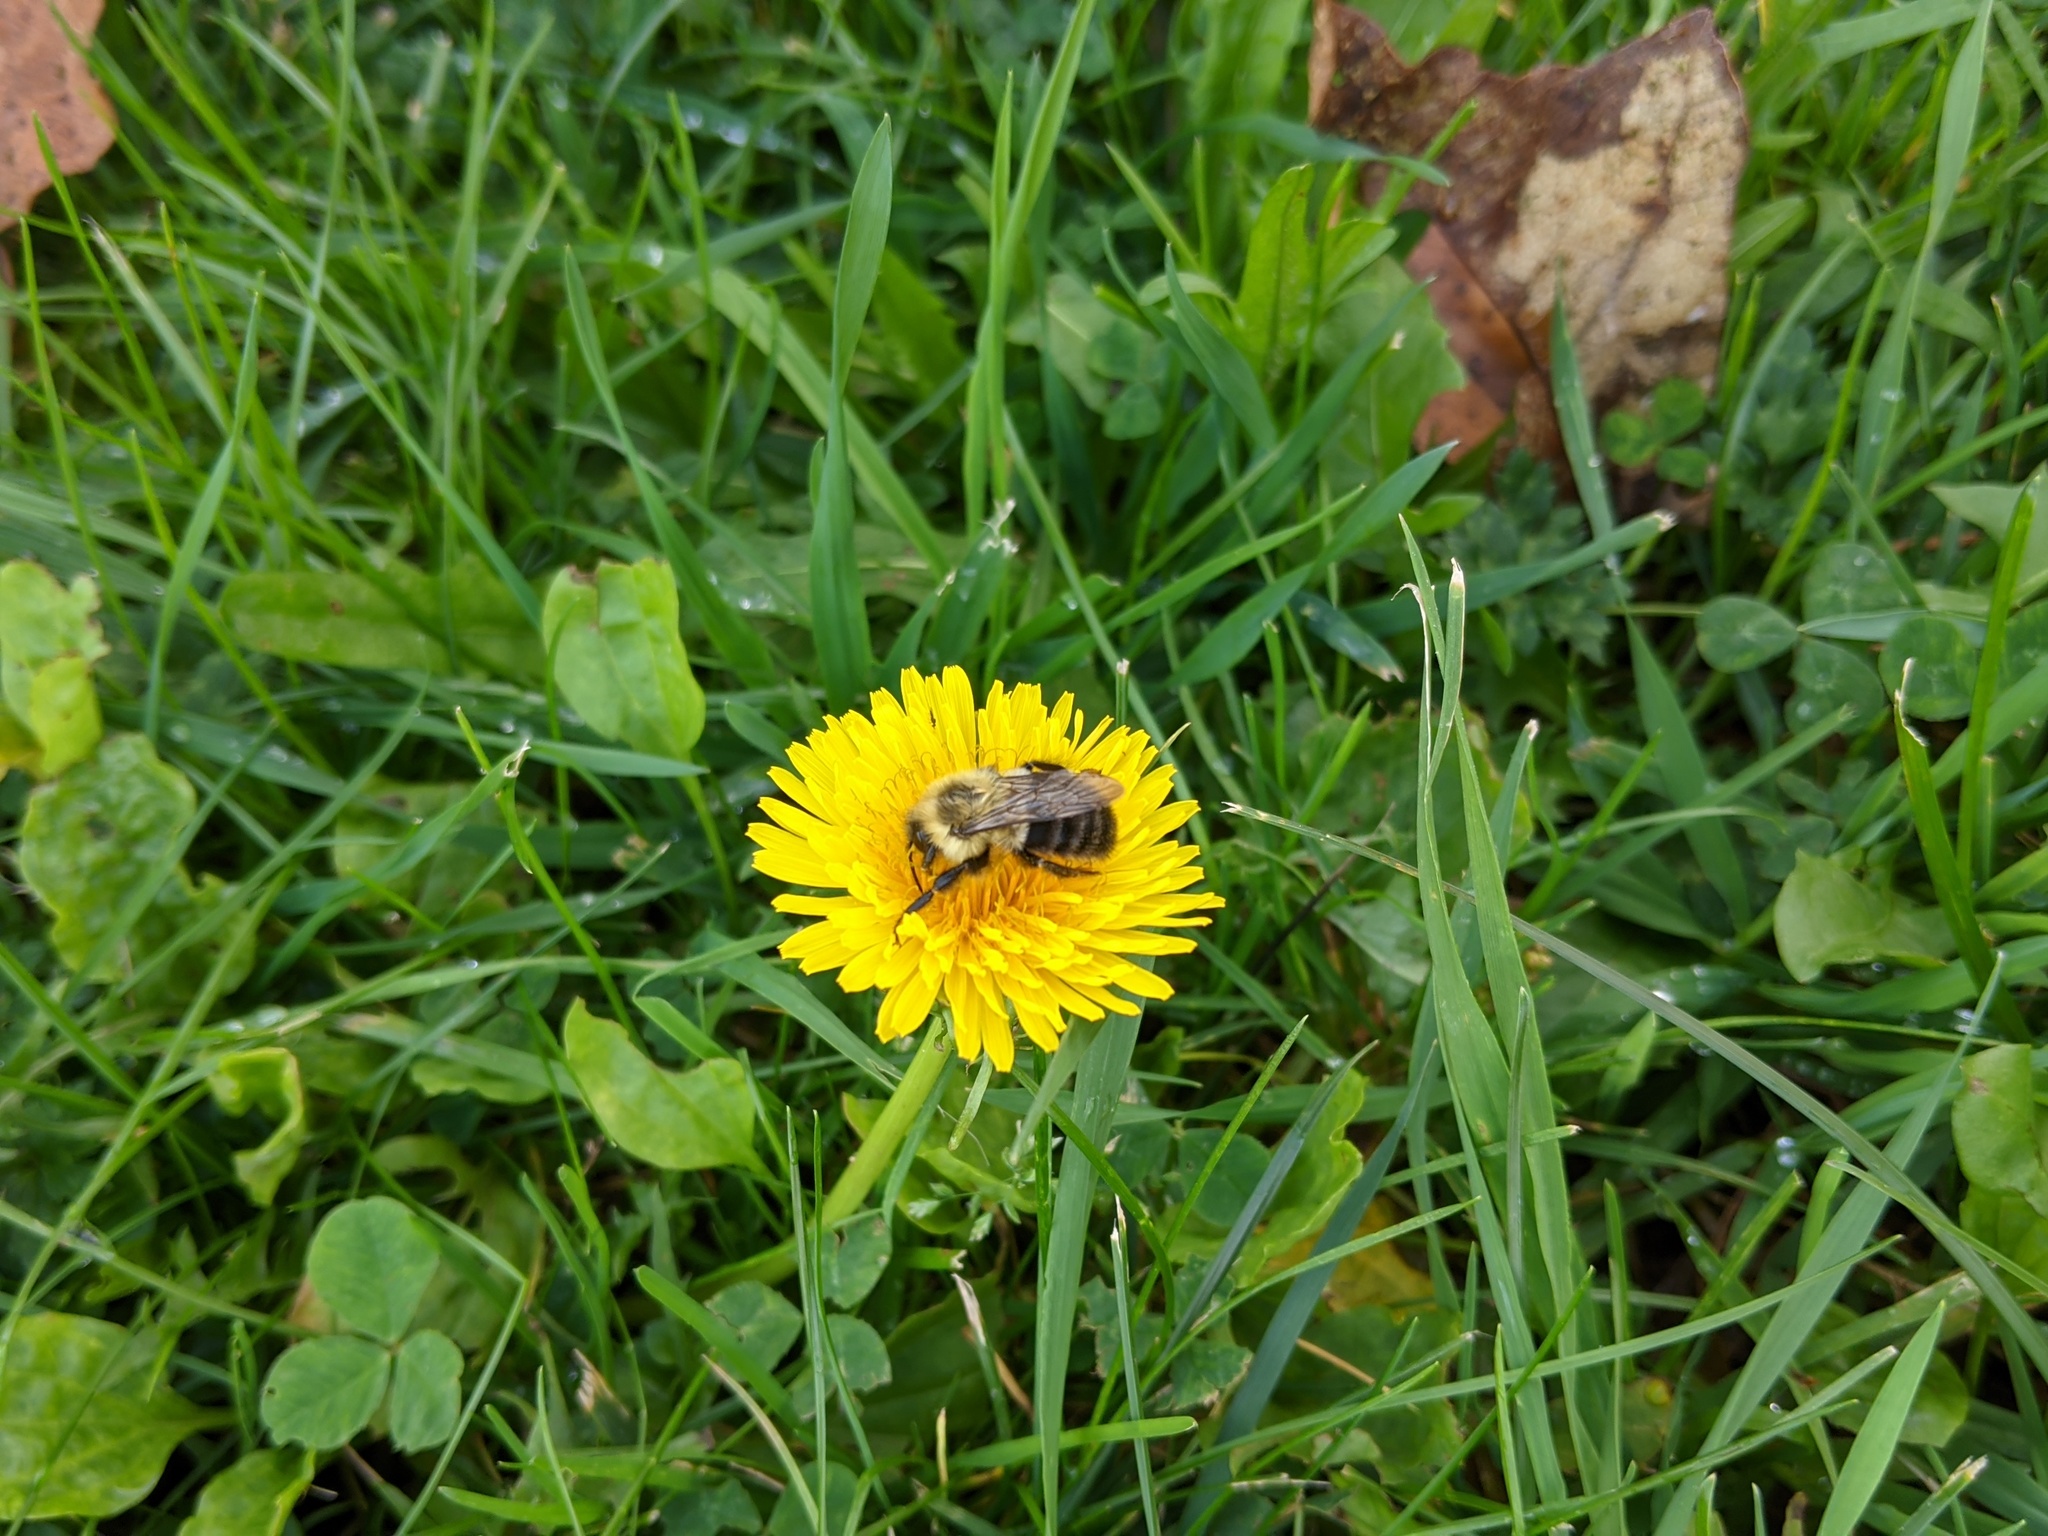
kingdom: Animalia
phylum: Arthropoda
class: Insecta
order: Hymenoptera
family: Apidae
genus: Bombus
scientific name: Bombus impatiens
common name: Common eastern bumble bee
